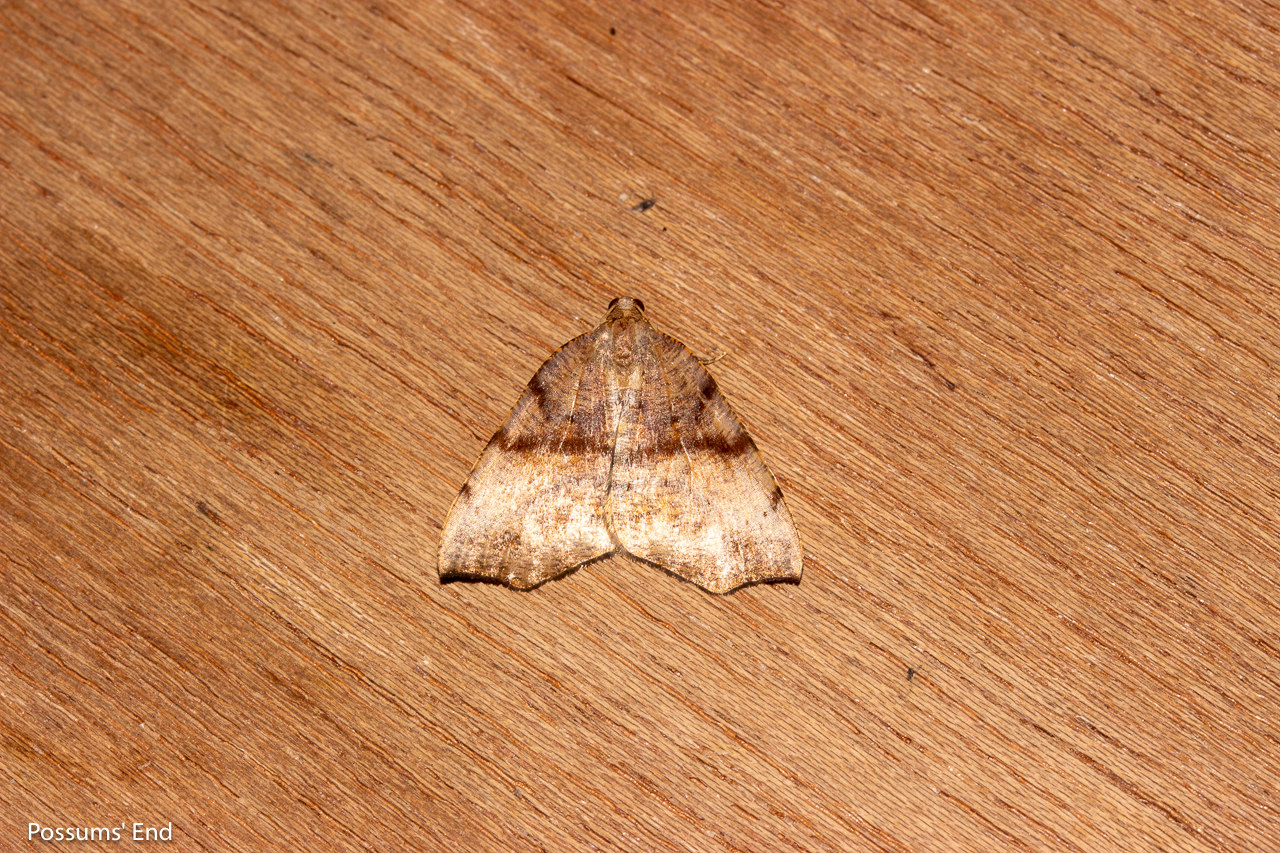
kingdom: Animalia
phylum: Arthropoda
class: Insecta
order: Lepidoptera
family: Geometridae
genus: Sestra
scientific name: Sestra flexata
